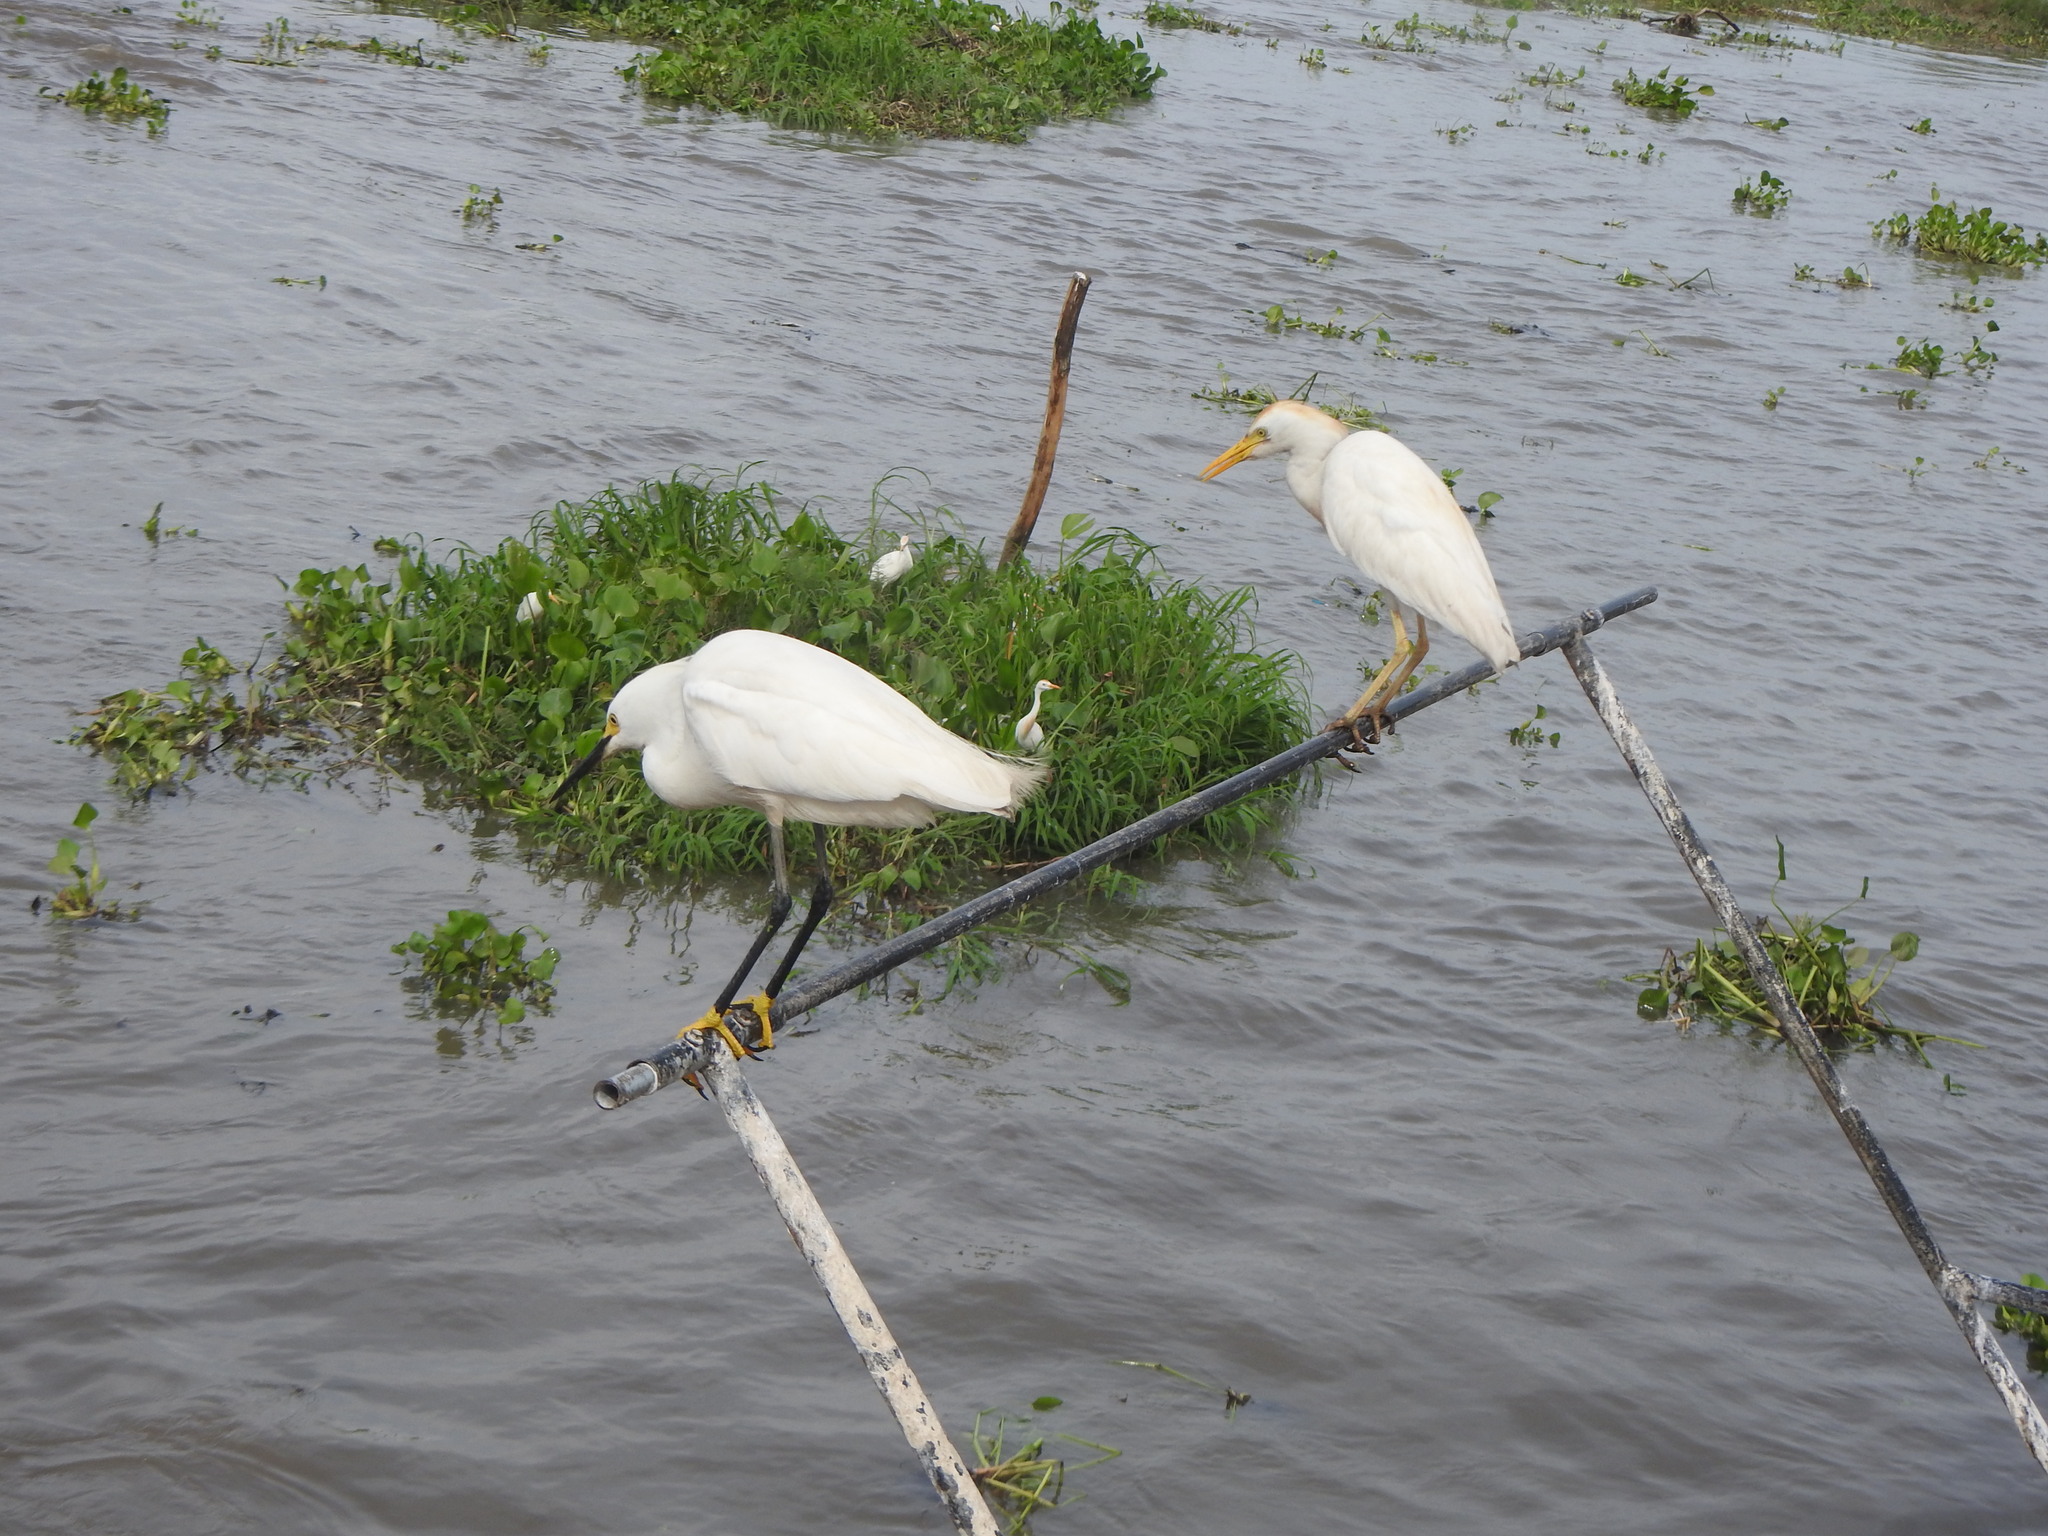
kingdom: Animalia
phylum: Chordata
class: Aves
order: Pelecaniformes
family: Ardeidae
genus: Egretta
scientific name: Egretta thula
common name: Snowy egret
